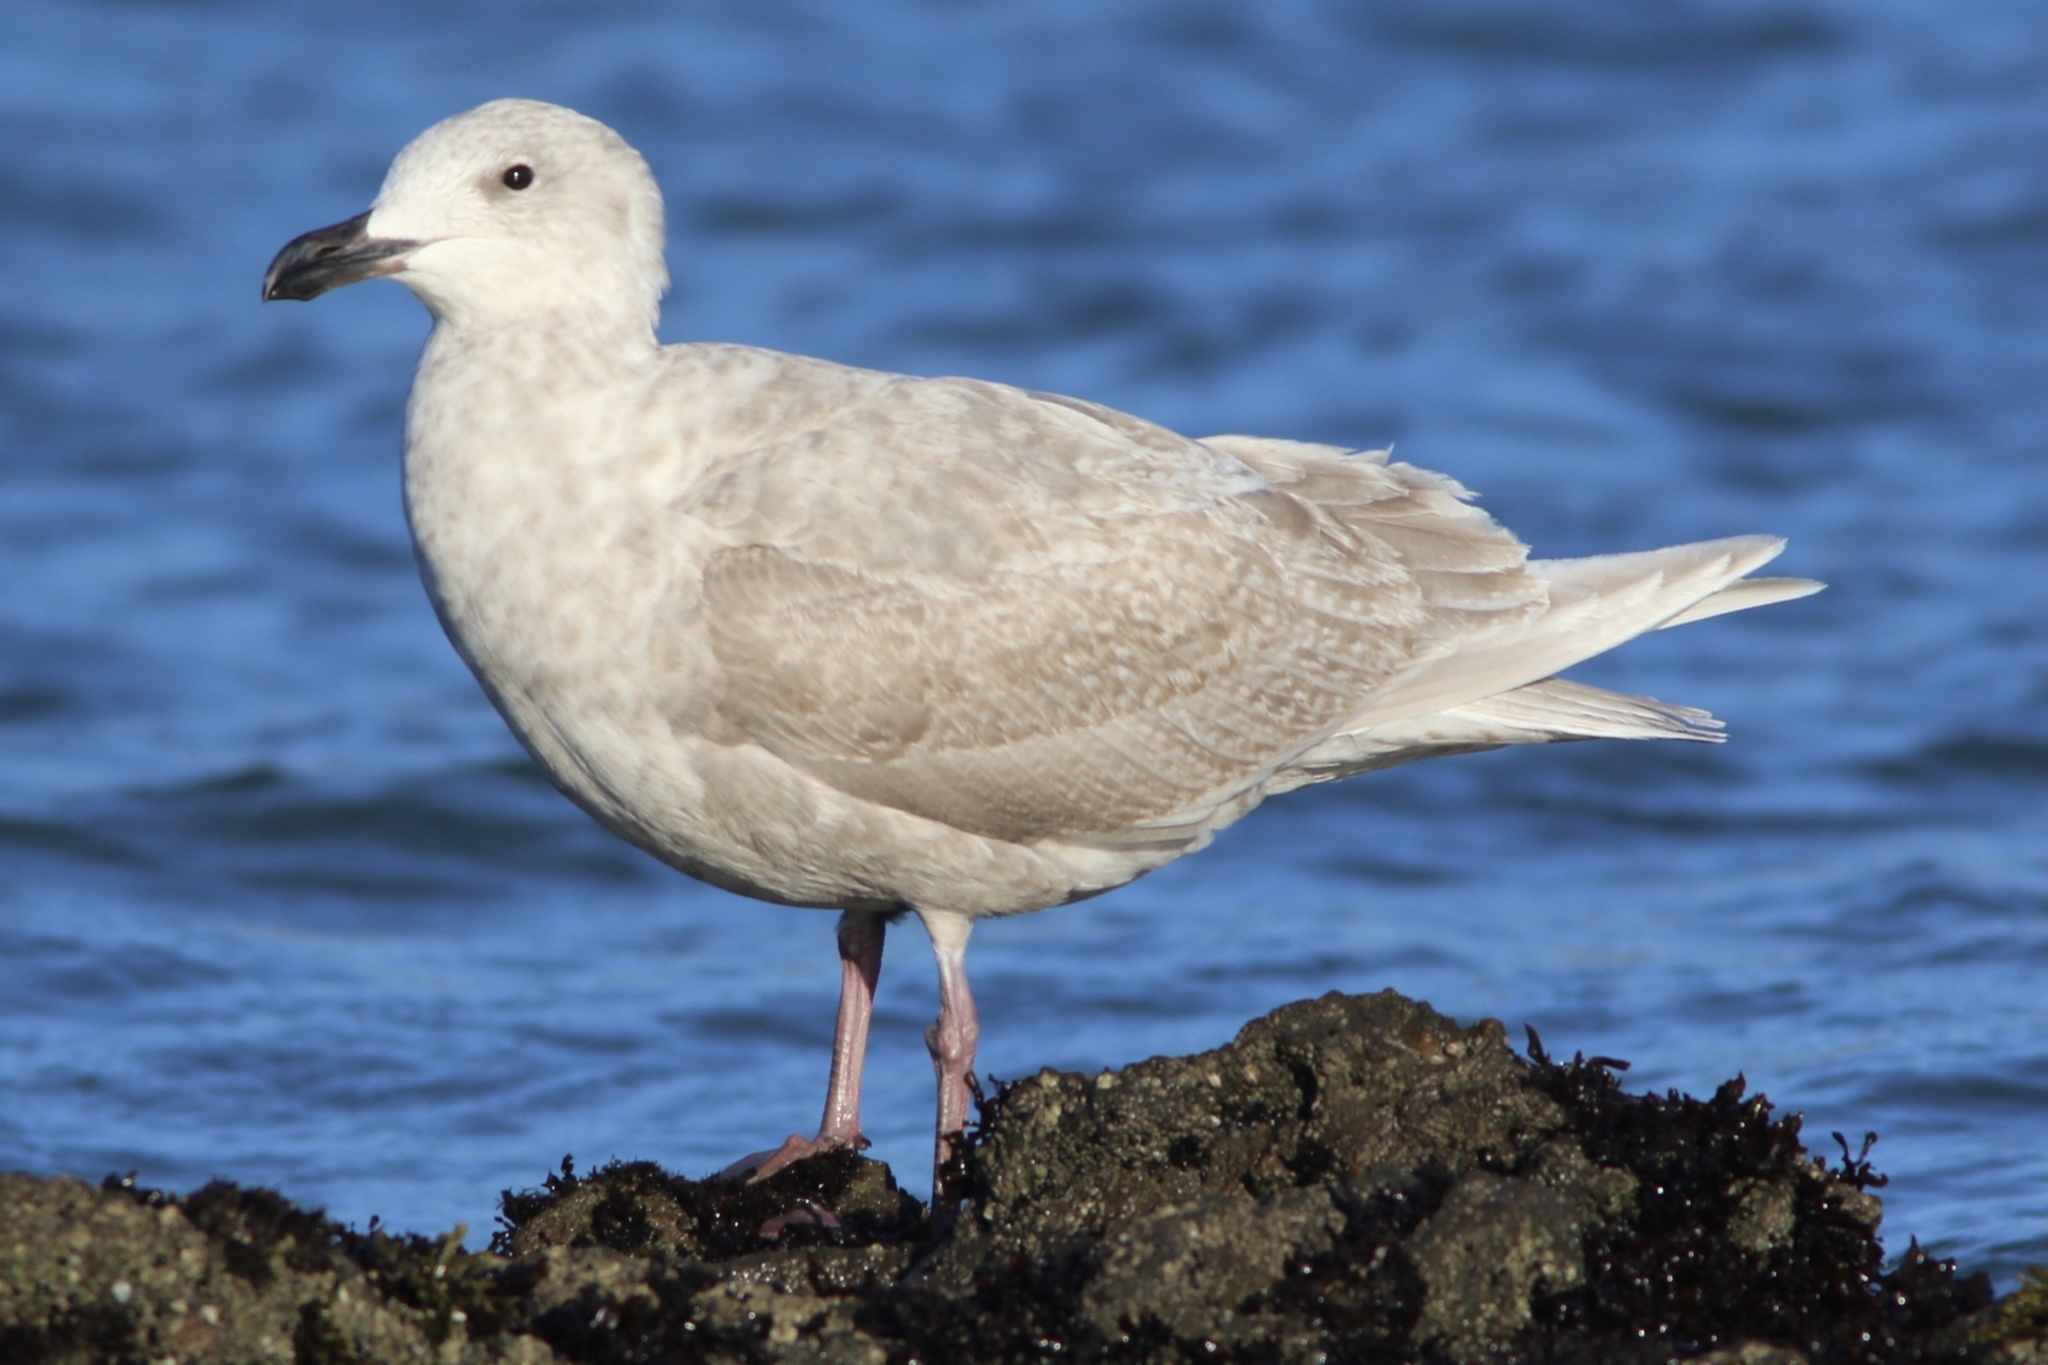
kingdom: Animalia
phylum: Chordata
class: Aves
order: Charadriiformes
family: Laridae
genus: Larus
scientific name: Larus glaucescens
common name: Glaucous-winged gull
